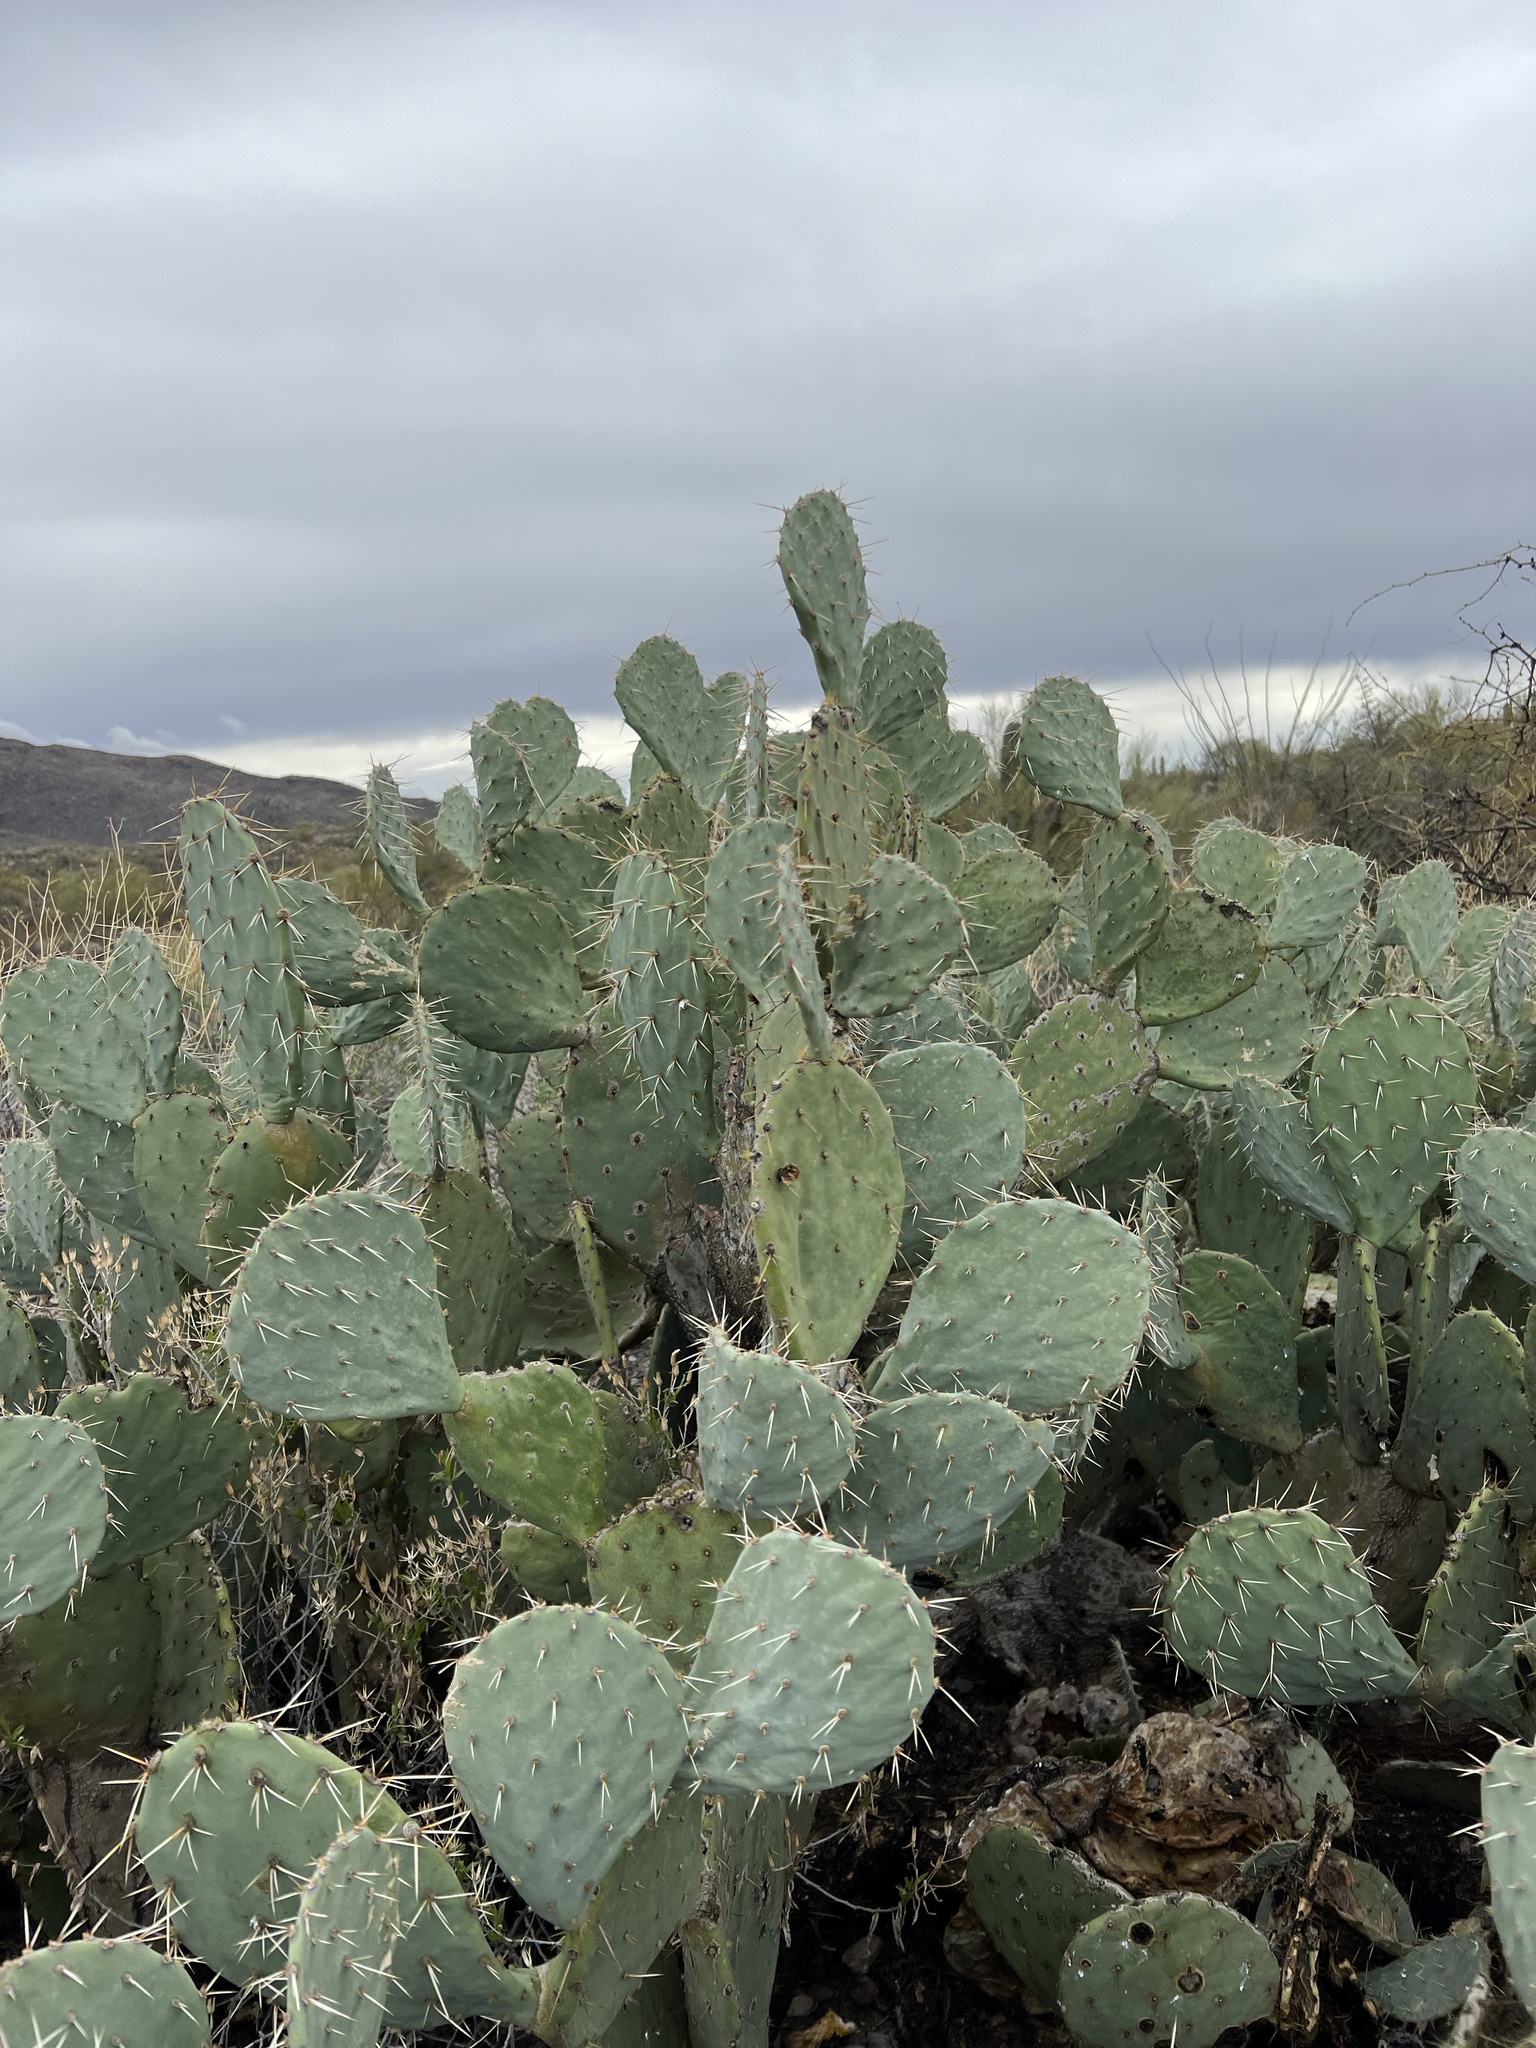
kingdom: Plantae
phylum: Tracheophyta
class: Magnoliopsida
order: Caryophyllales
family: Cactaceae
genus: Opuntia
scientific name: Opuntia engelmannii
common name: Cactus-apple
